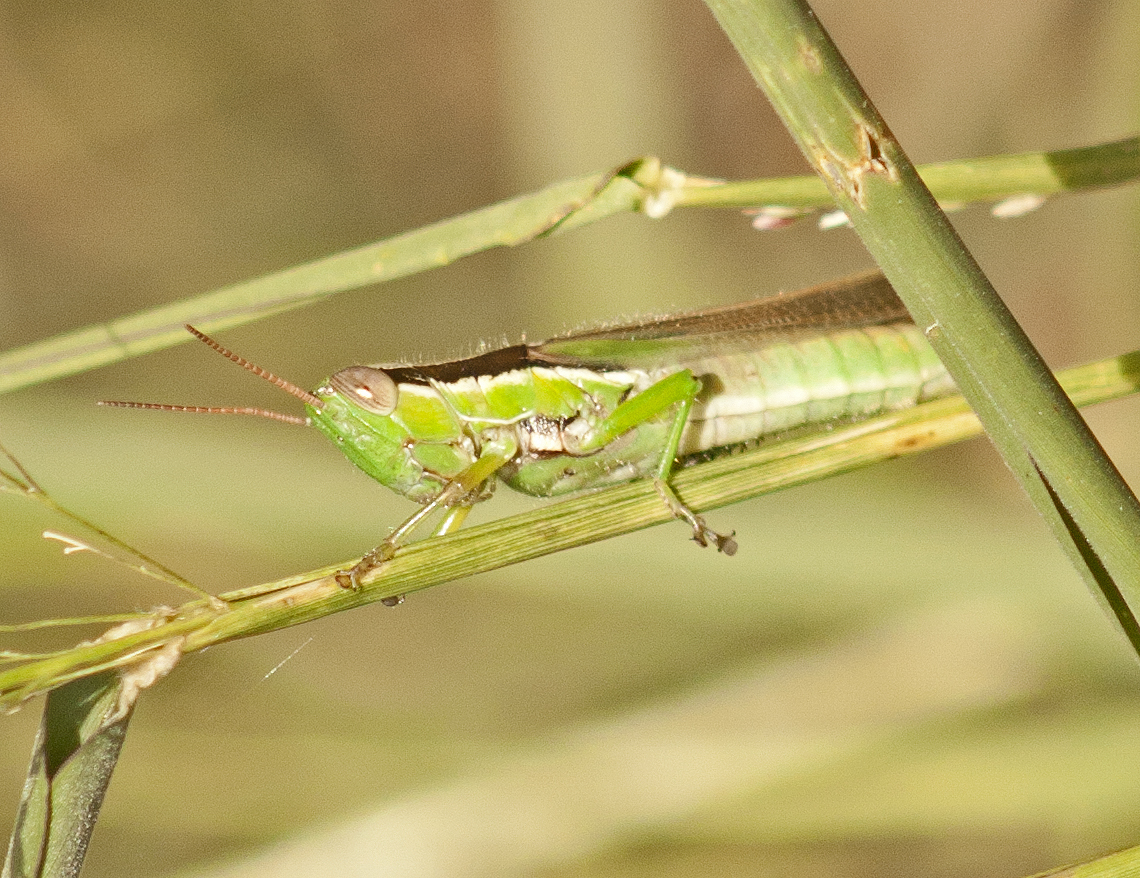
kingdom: Animalia
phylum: Arthropoda
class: Insecta
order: Orthoptera
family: Acrididae
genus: Bermius
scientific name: Bermius brachycerus
